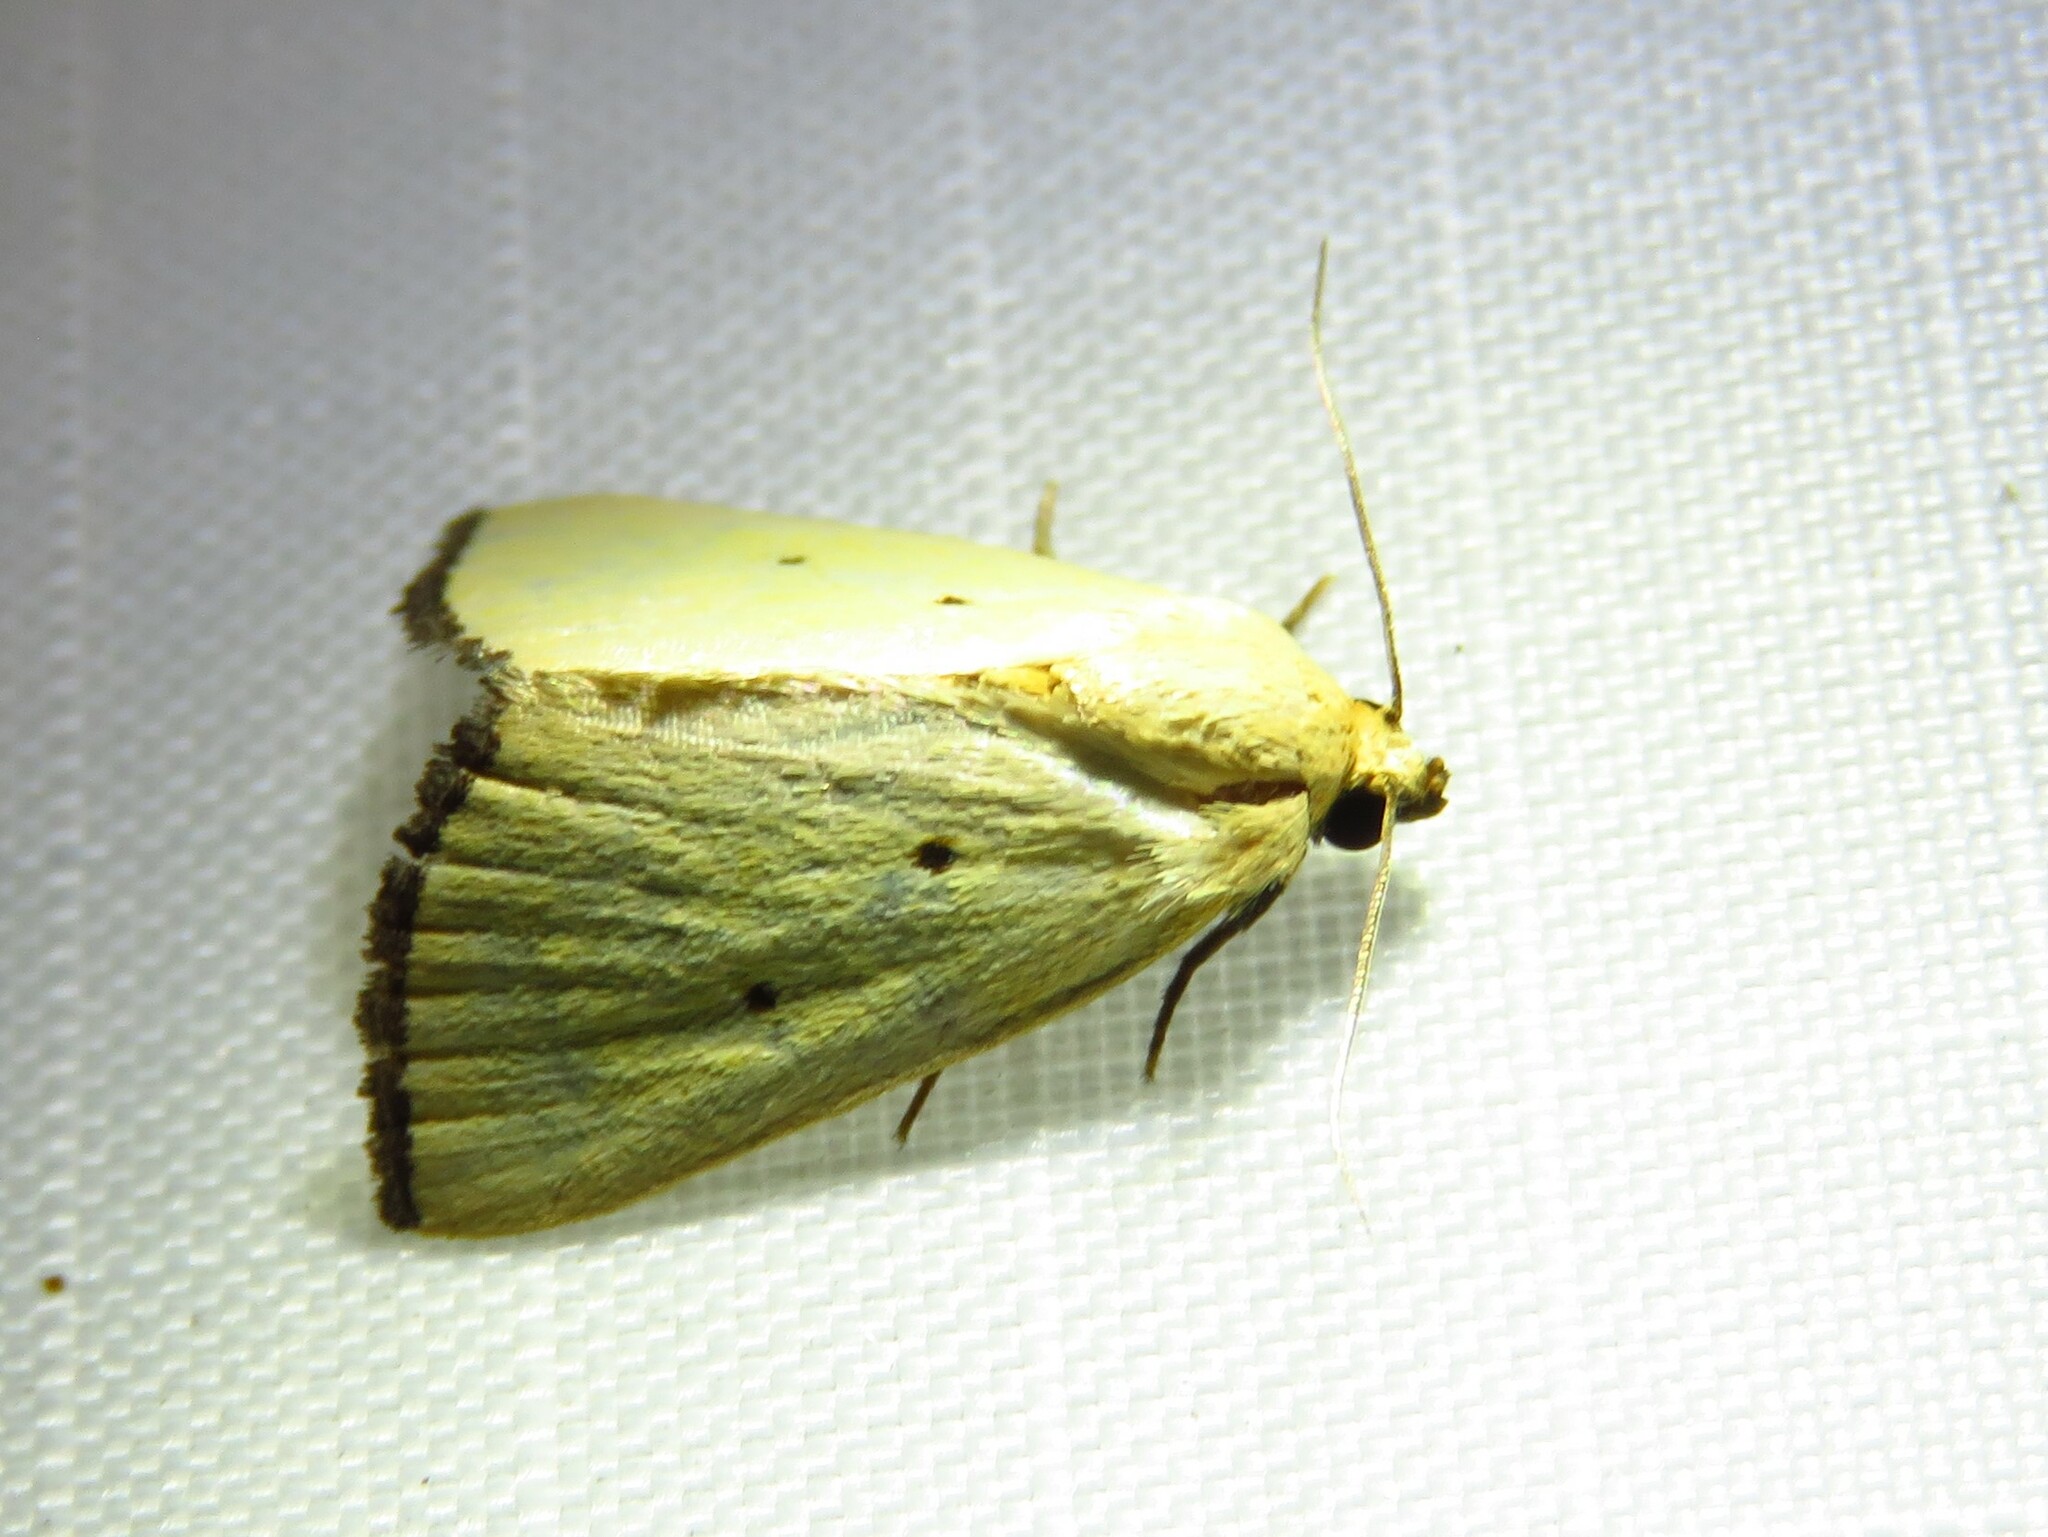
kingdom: Animalia
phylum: Arthropoda
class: Insecta
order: Lepidoptera
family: Noctuidae
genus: Marimatha
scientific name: Marimatha nigrofimbria
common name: Black-bordered lemon moth
